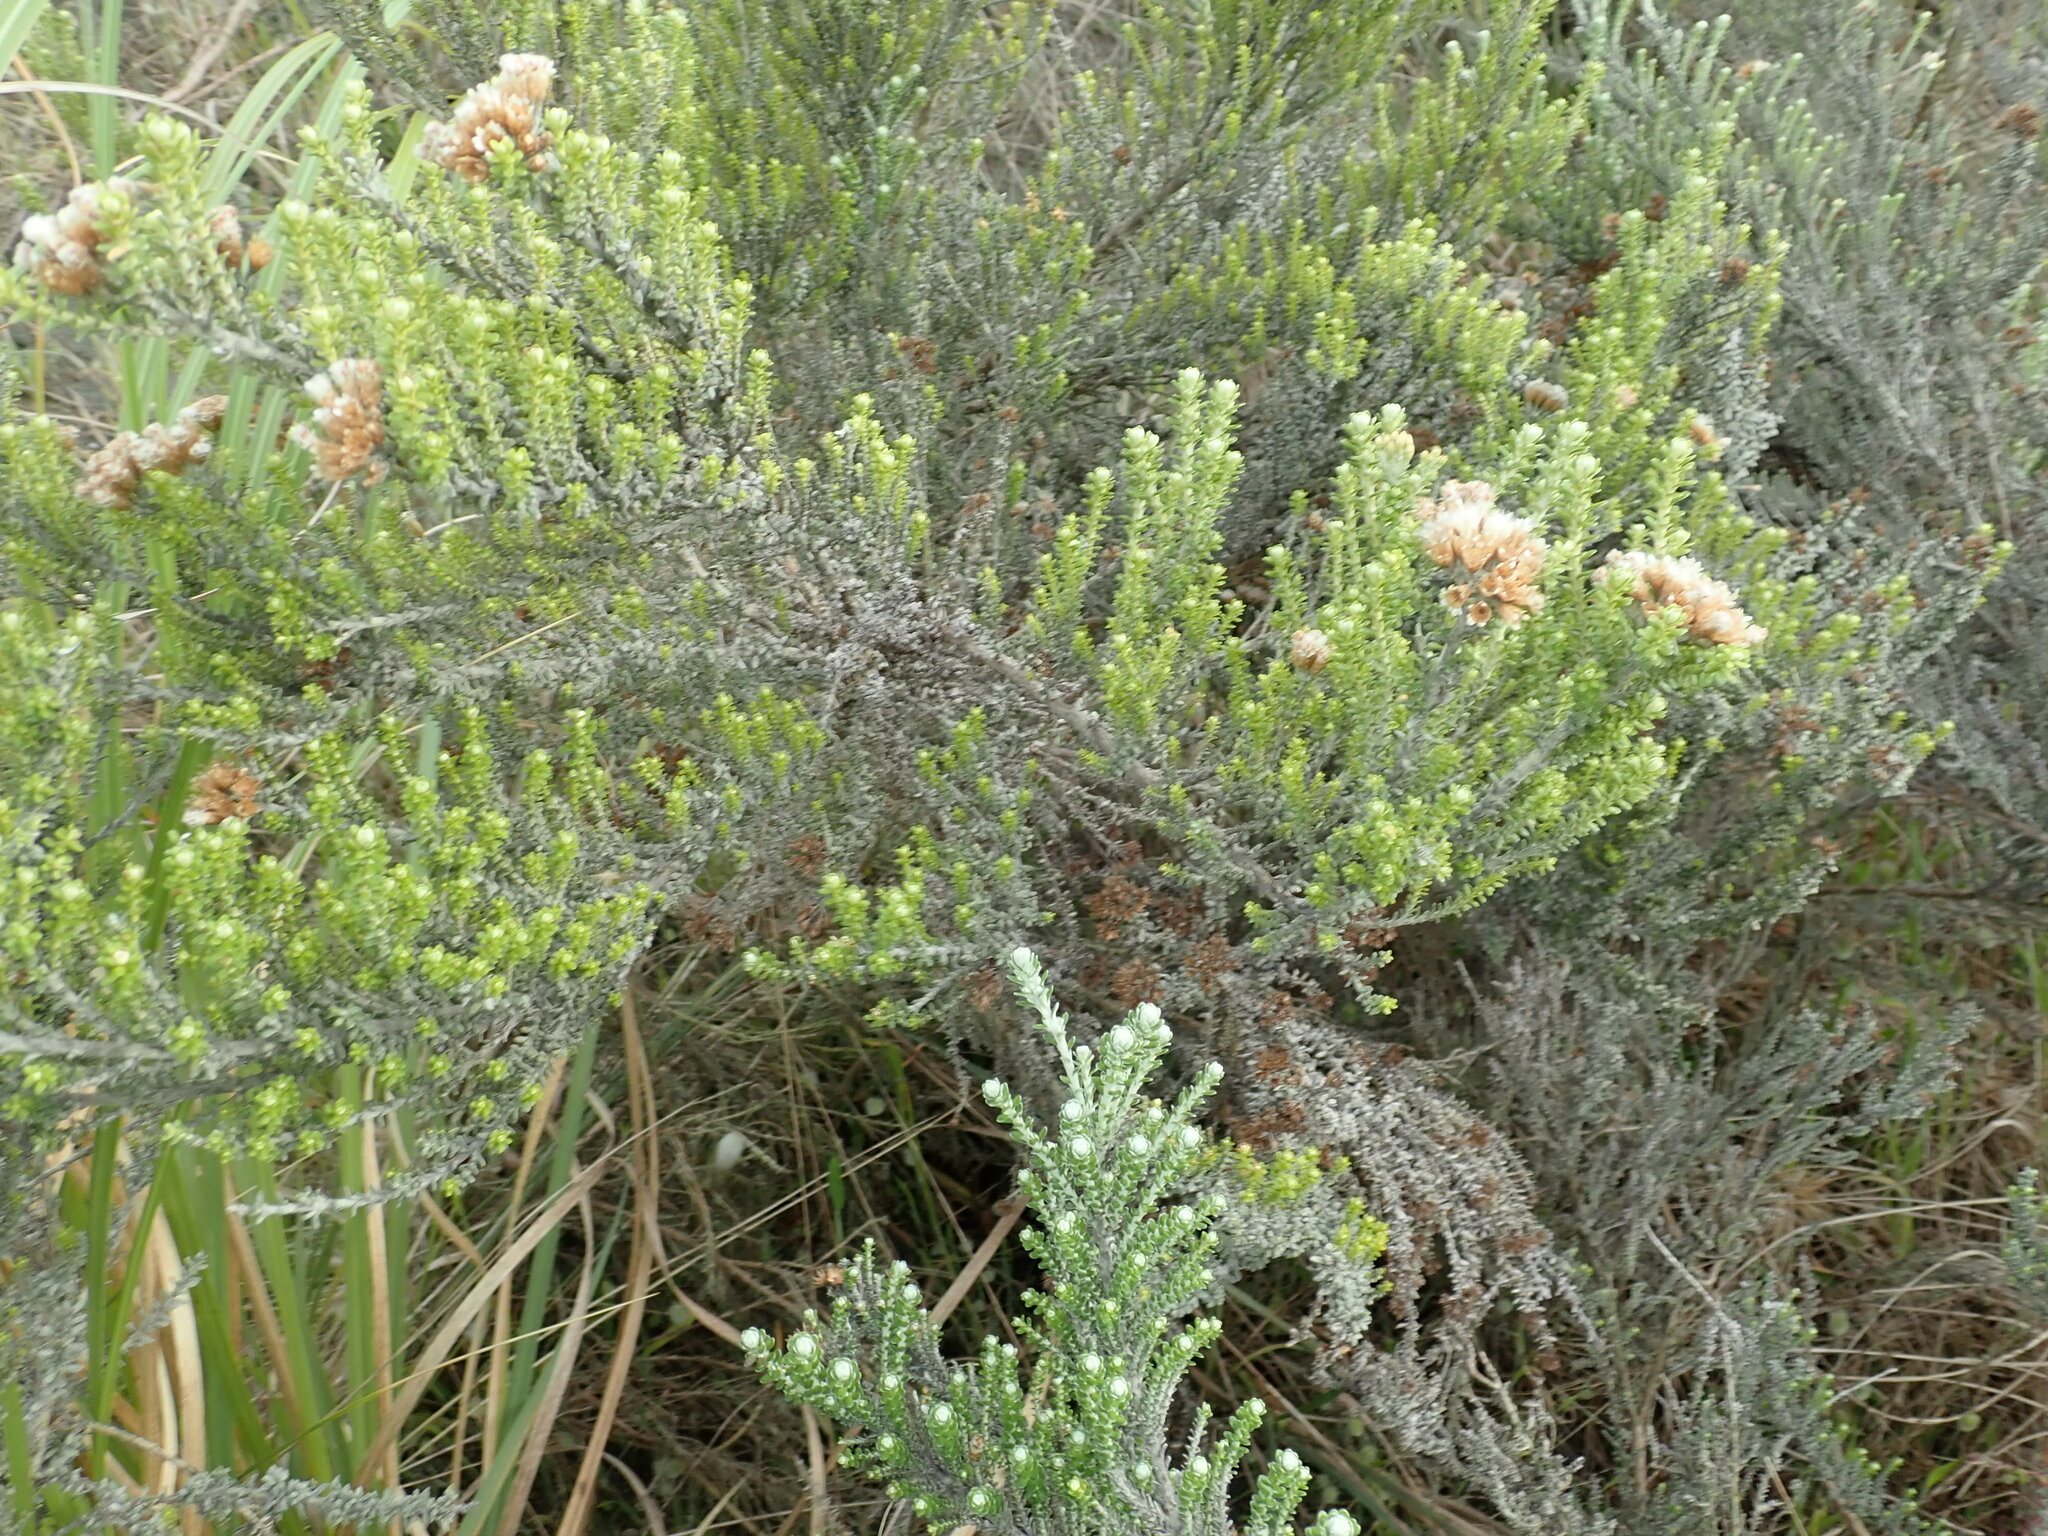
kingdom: Plantae
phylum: Tracheophyta
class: Magnoliopsida
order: Asterales
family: Asteraceae
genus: Ozothamnus
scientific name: Ozothamnus leptophyllus
